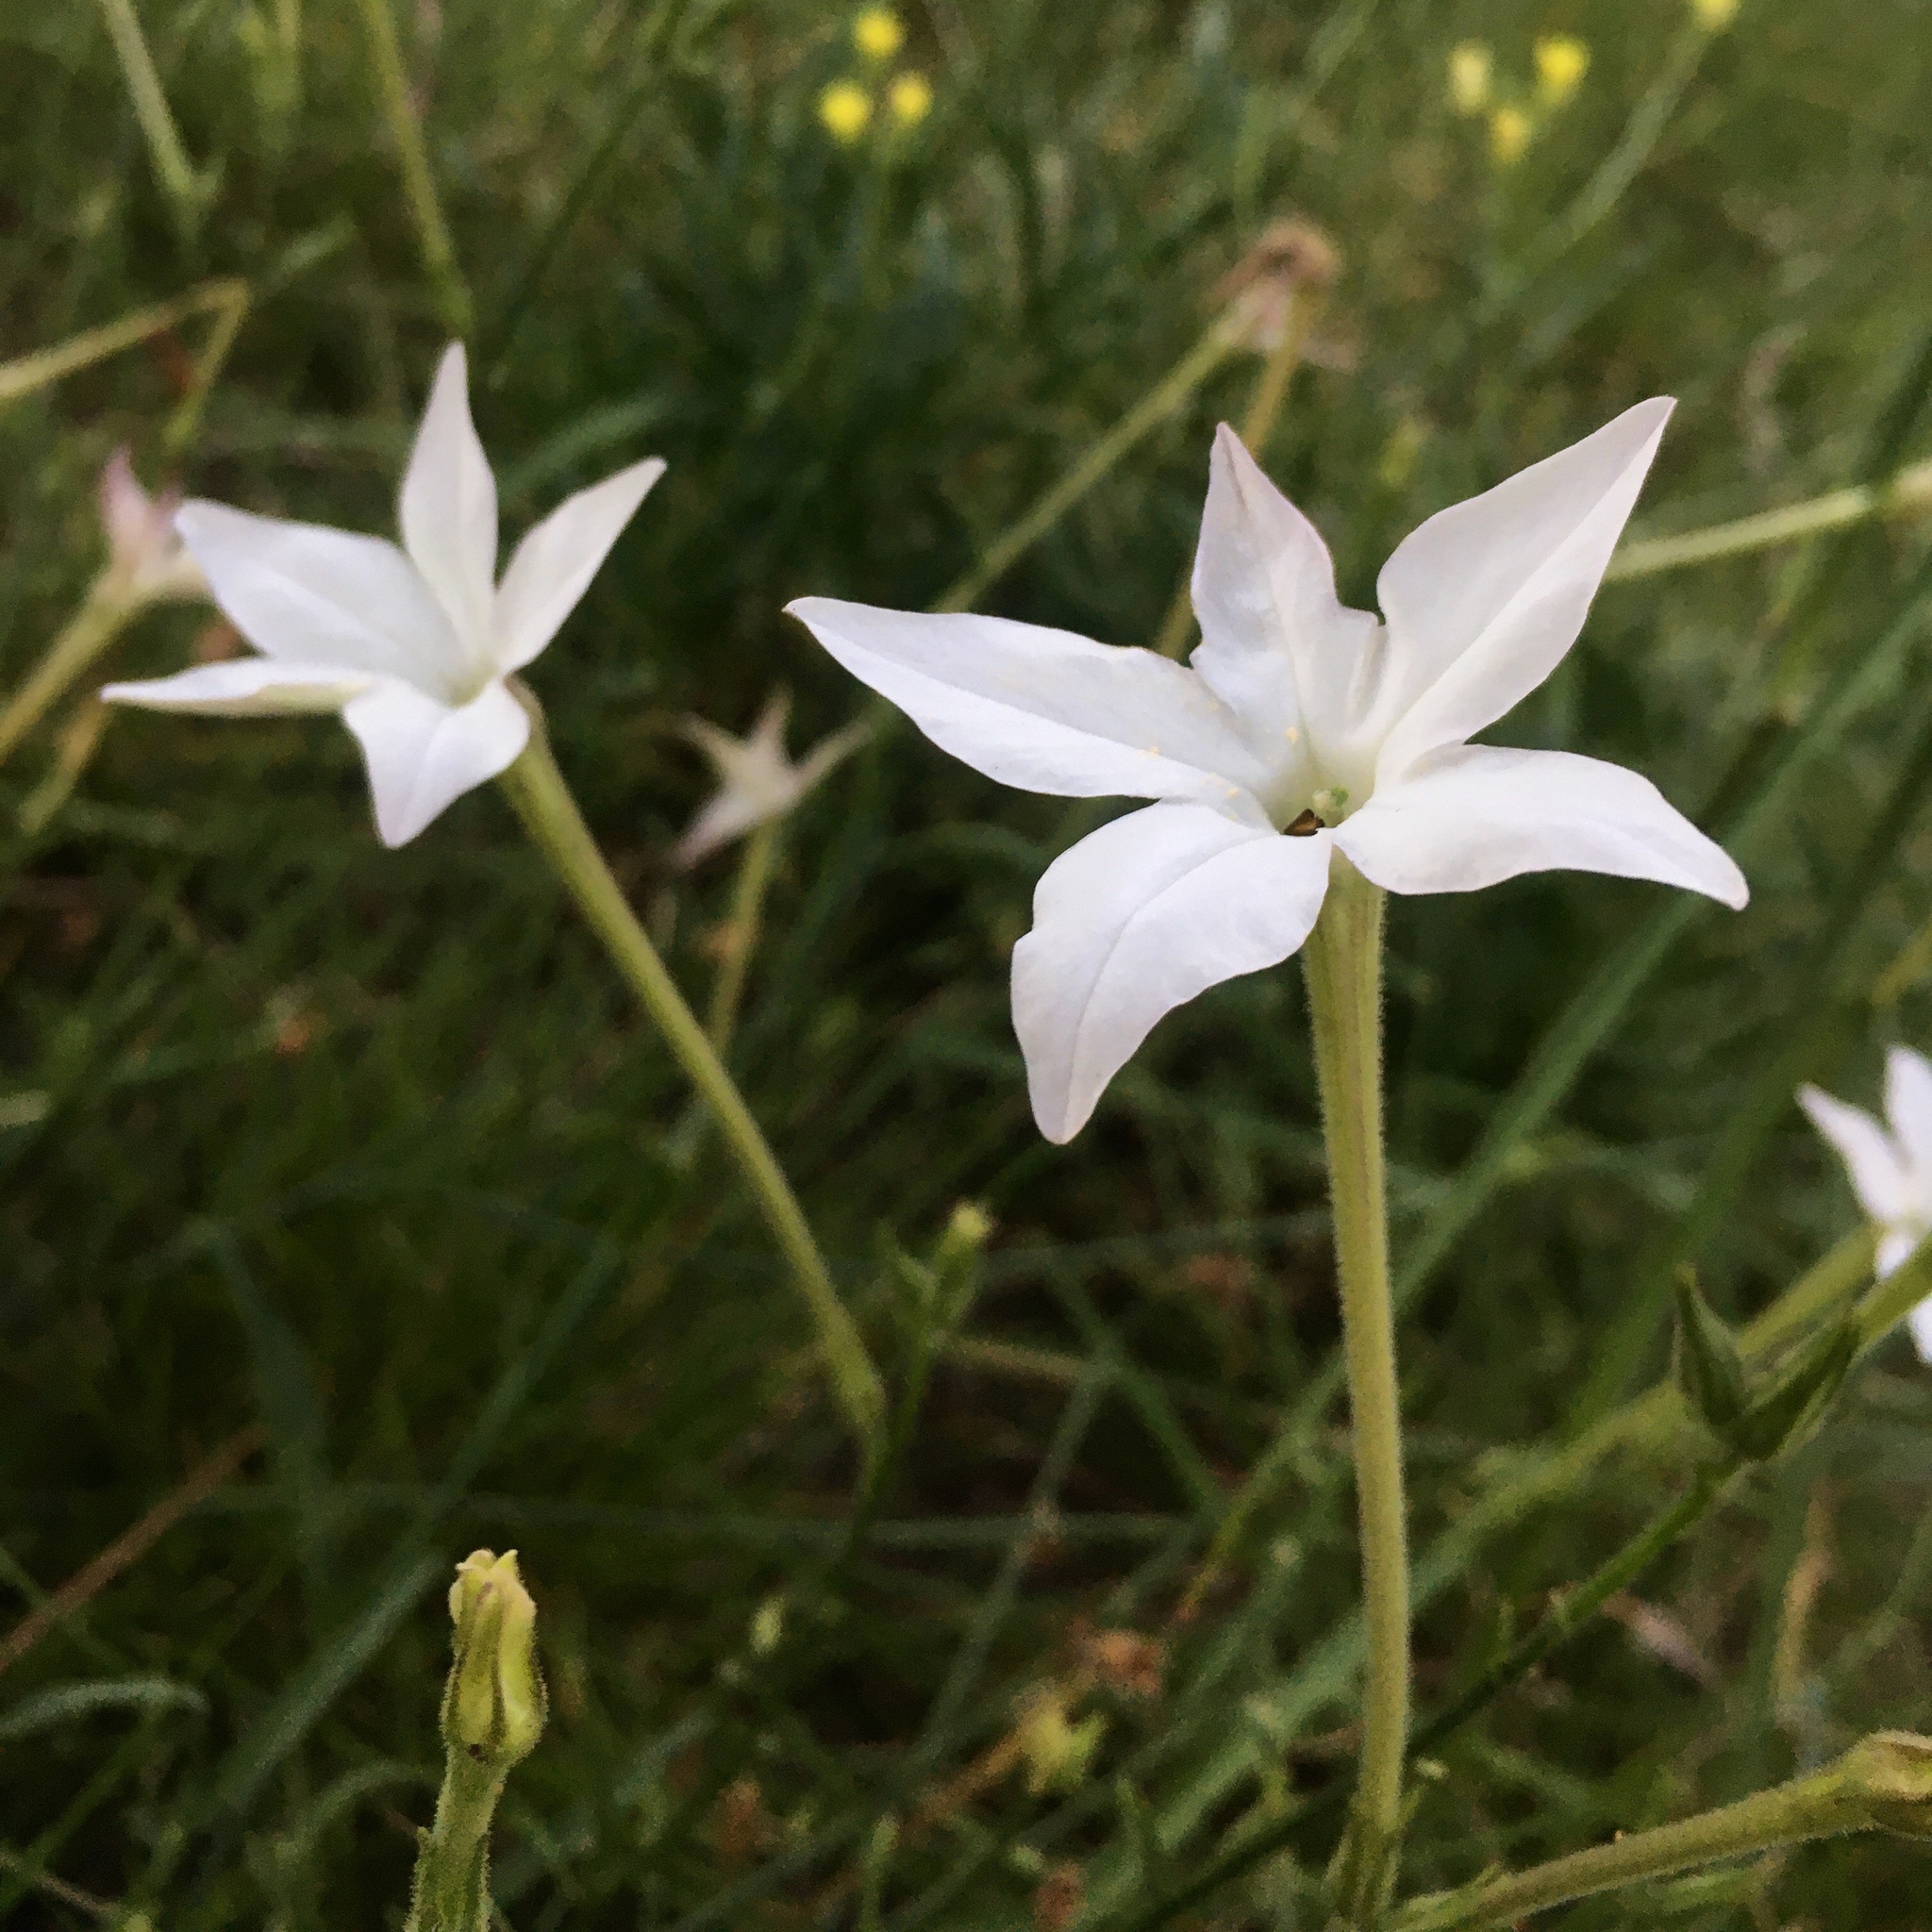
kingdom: Plantae
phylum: Tracheophyta
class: Magnoliopsida
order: Solanales
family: Solanaceae
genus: Nicotiana
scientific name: Nicotiana longiflora
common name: Long-flowered tobacco
